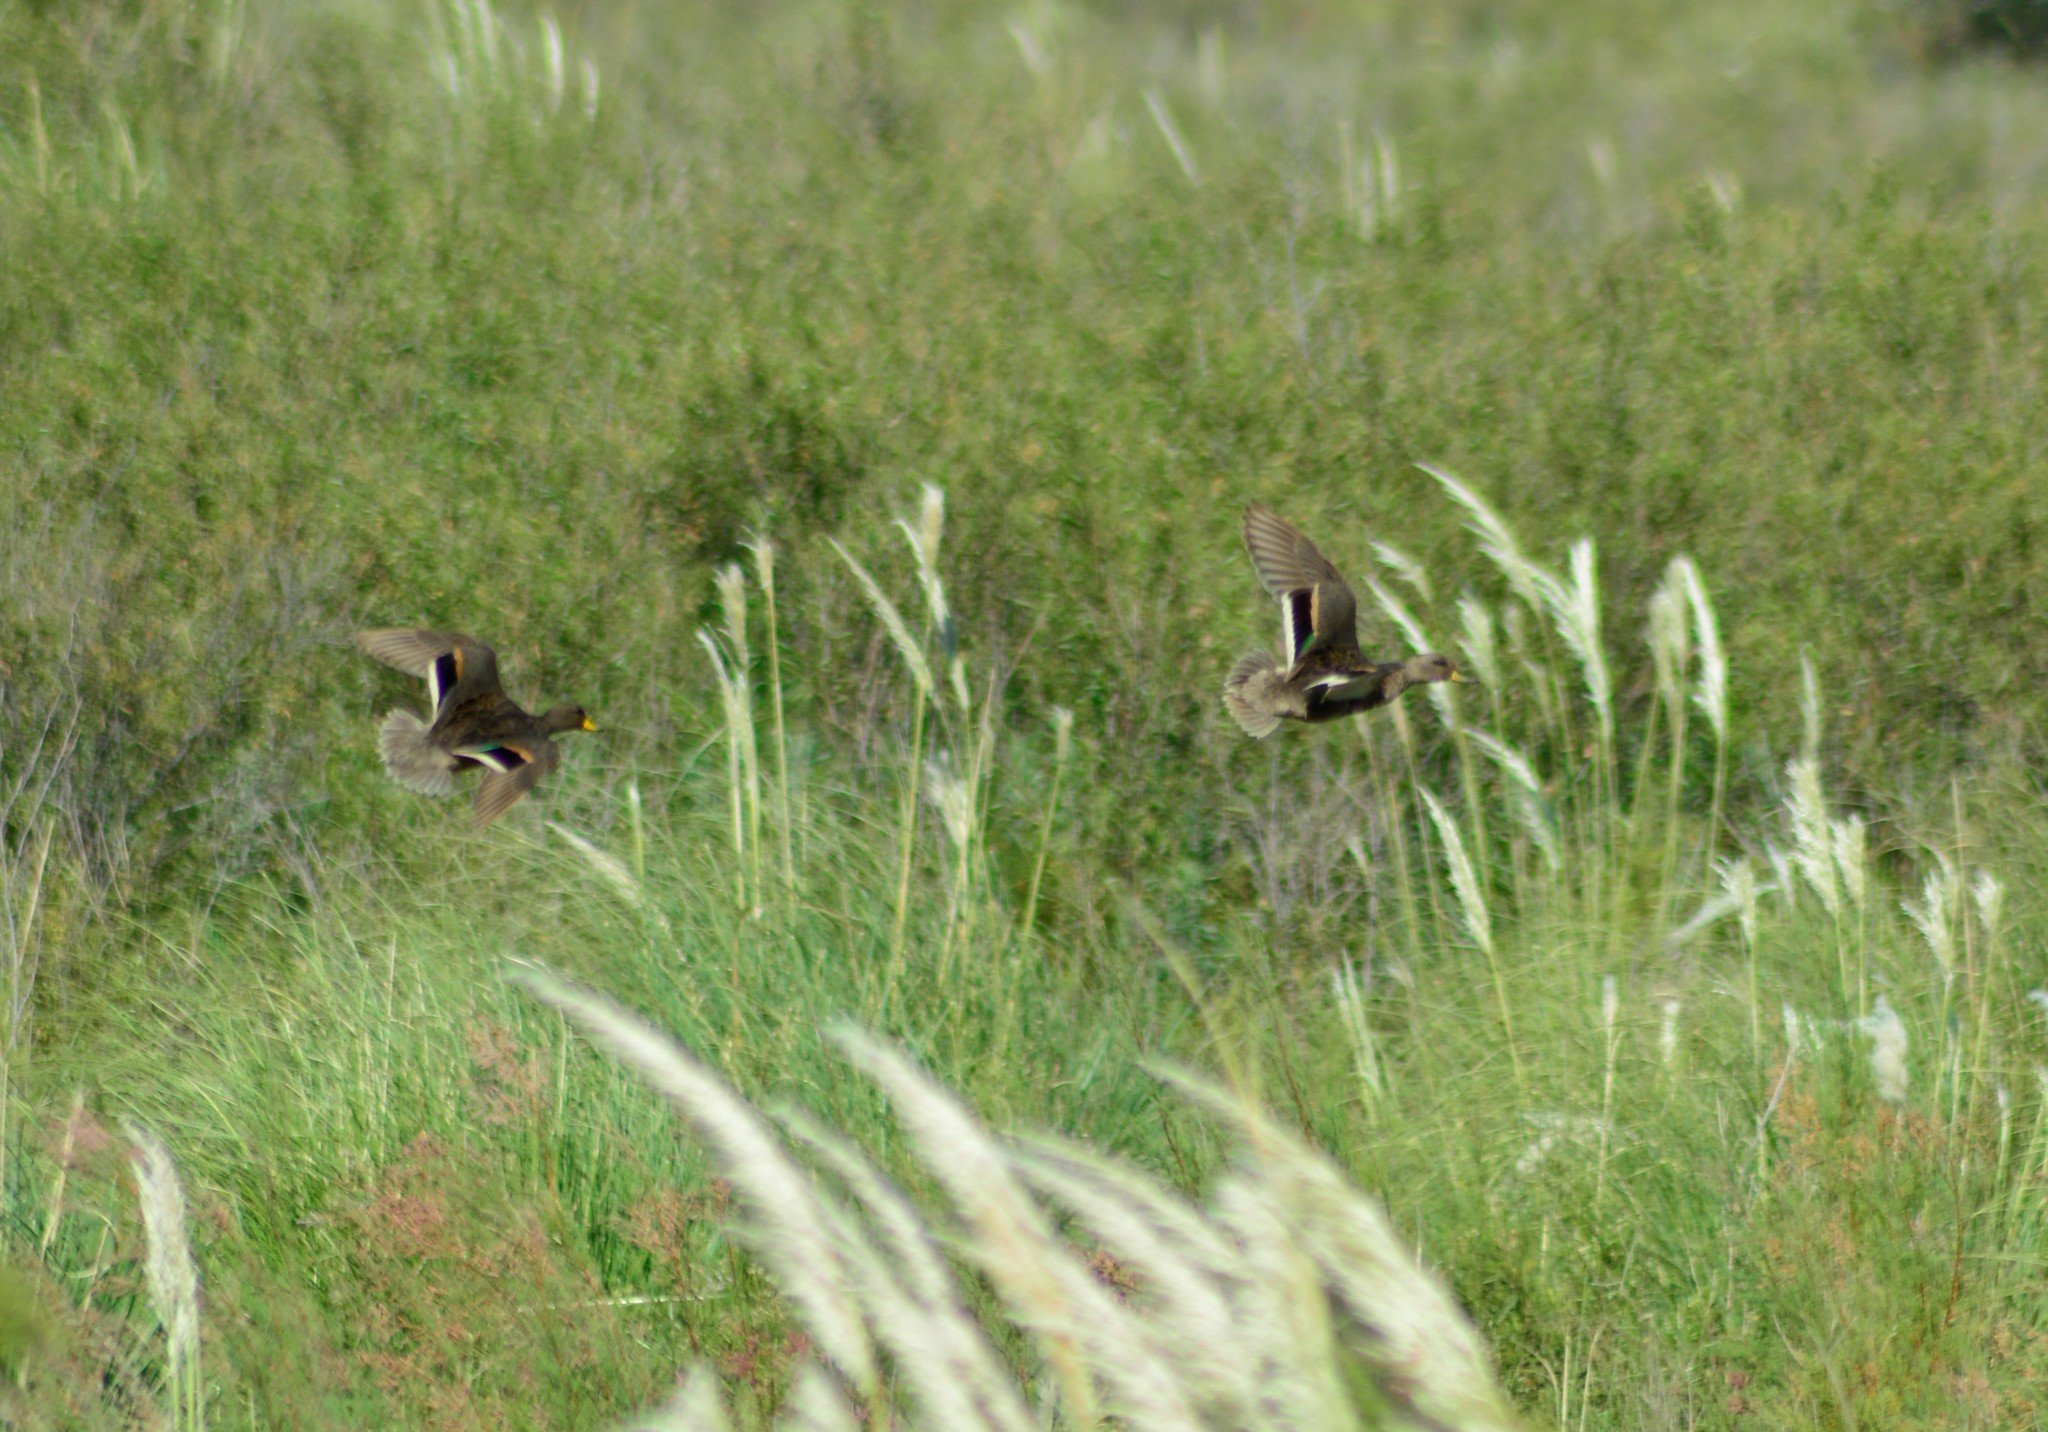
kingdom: Animalia
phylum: Chordata
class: Aves
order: Anseriformes
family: Anatidae
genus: Anas
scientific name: Anas flavirostris
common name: Yellow-billed teal
